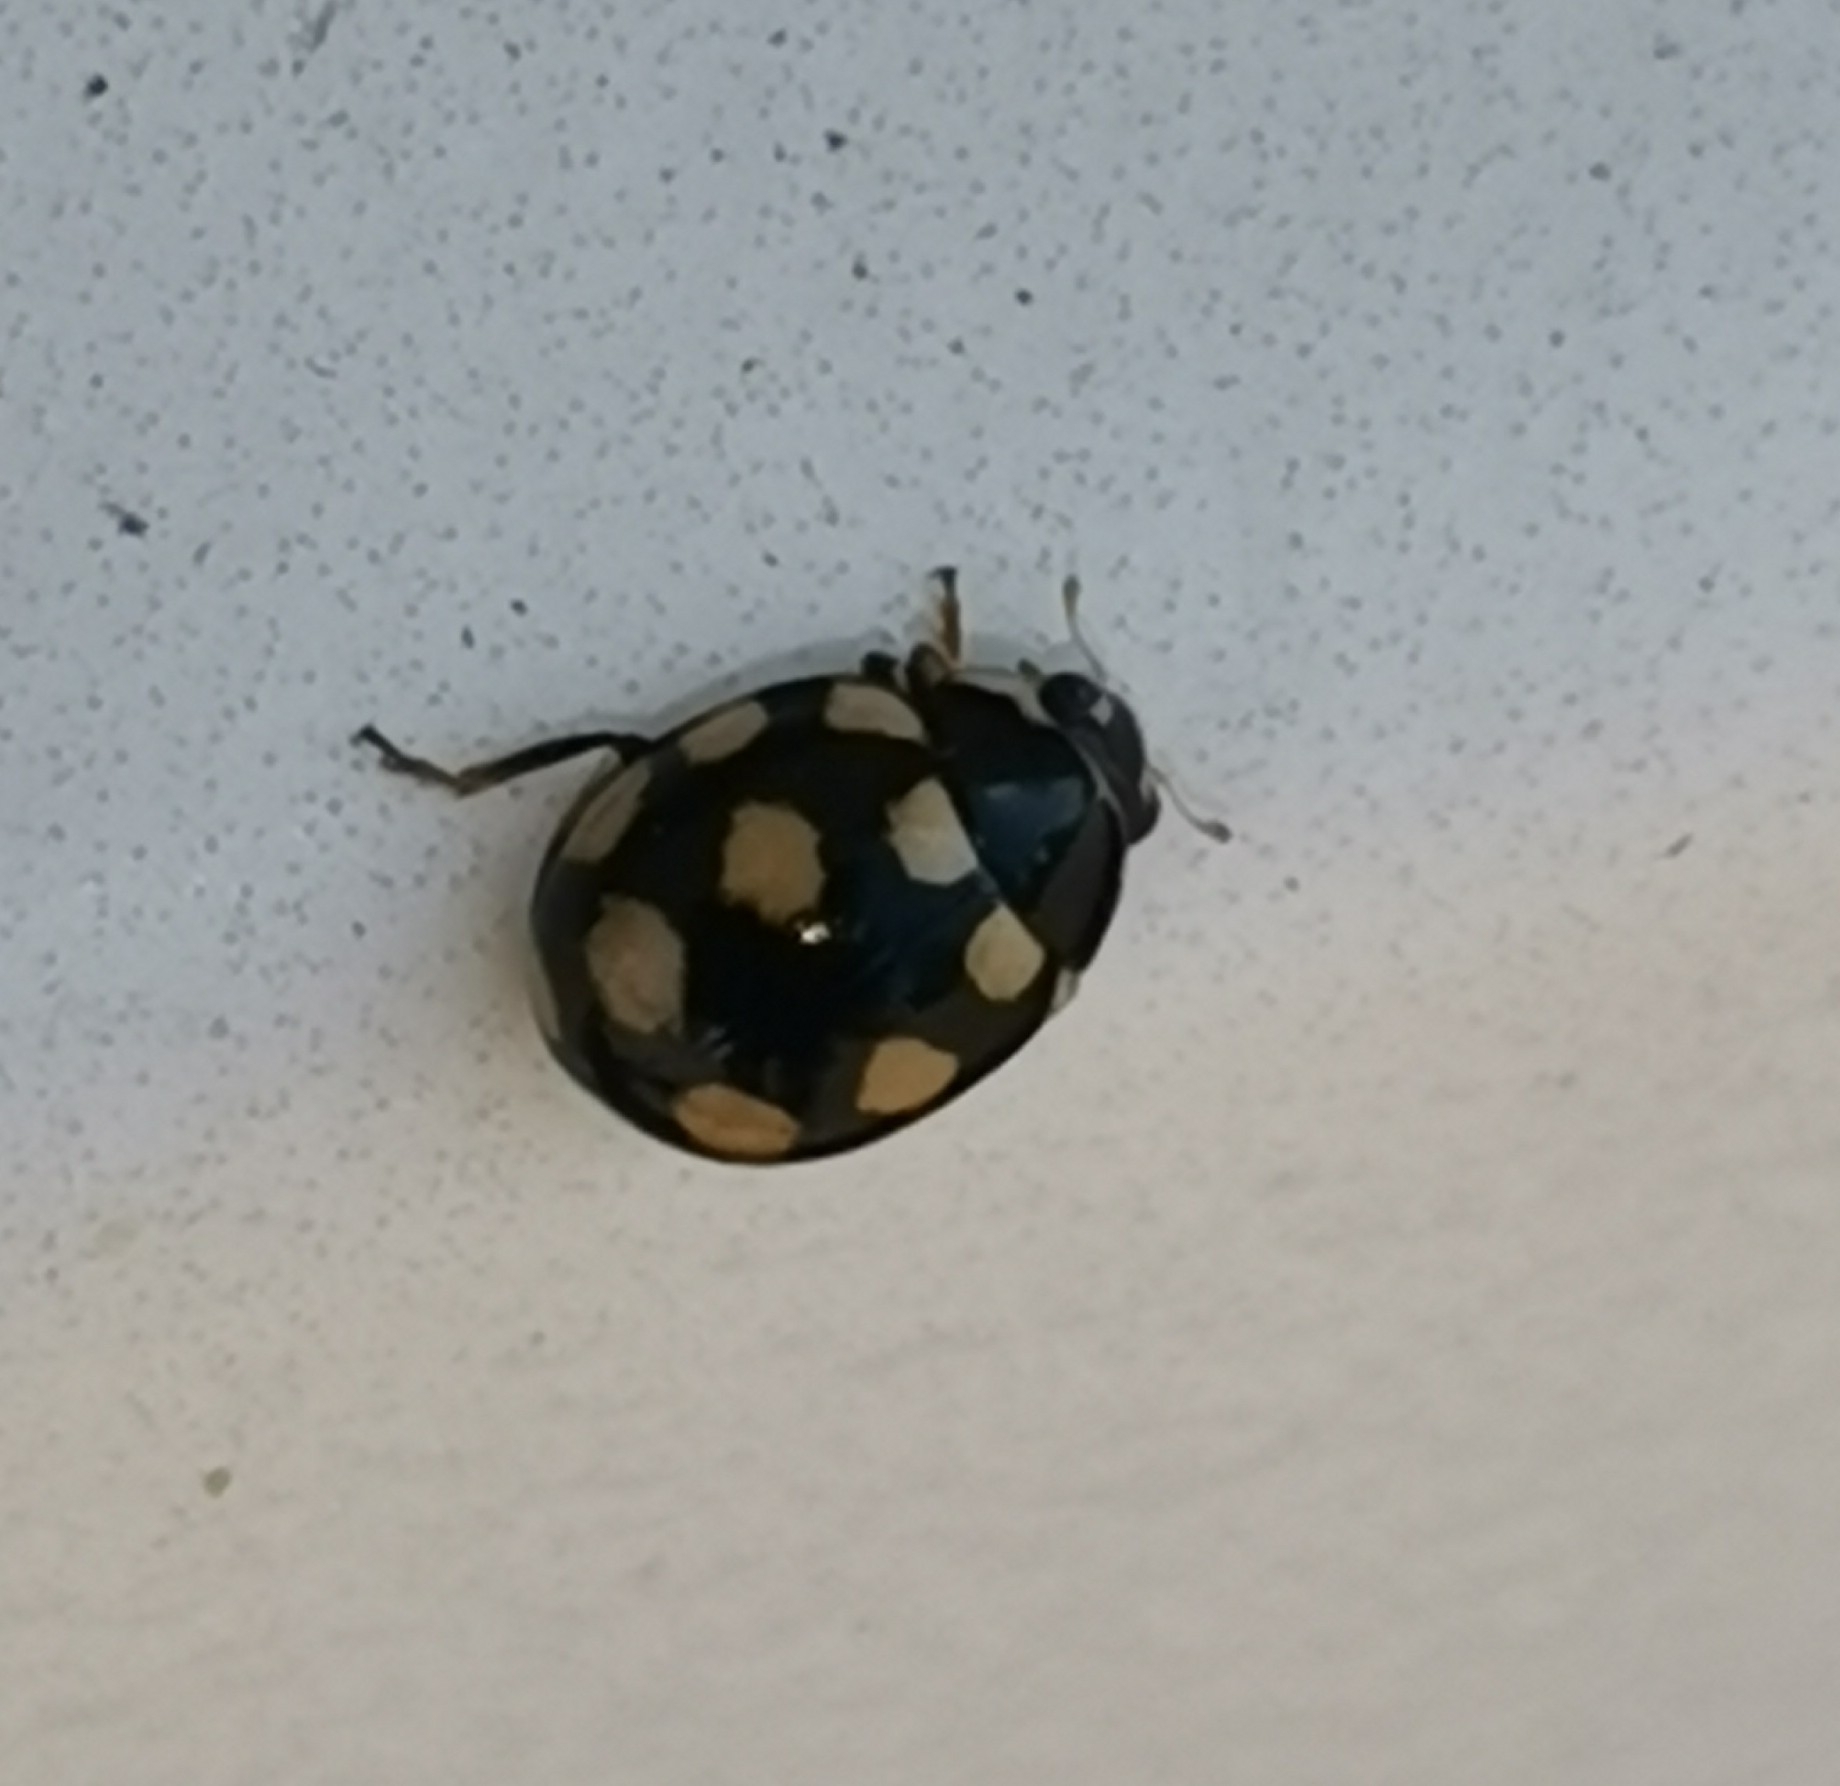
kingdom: Animalia
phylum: Arthropoda
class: Insecta
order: Coleoptera
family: Coccinellidae
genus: Coccinula
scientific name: Coccinula quatuordecimpustulata
